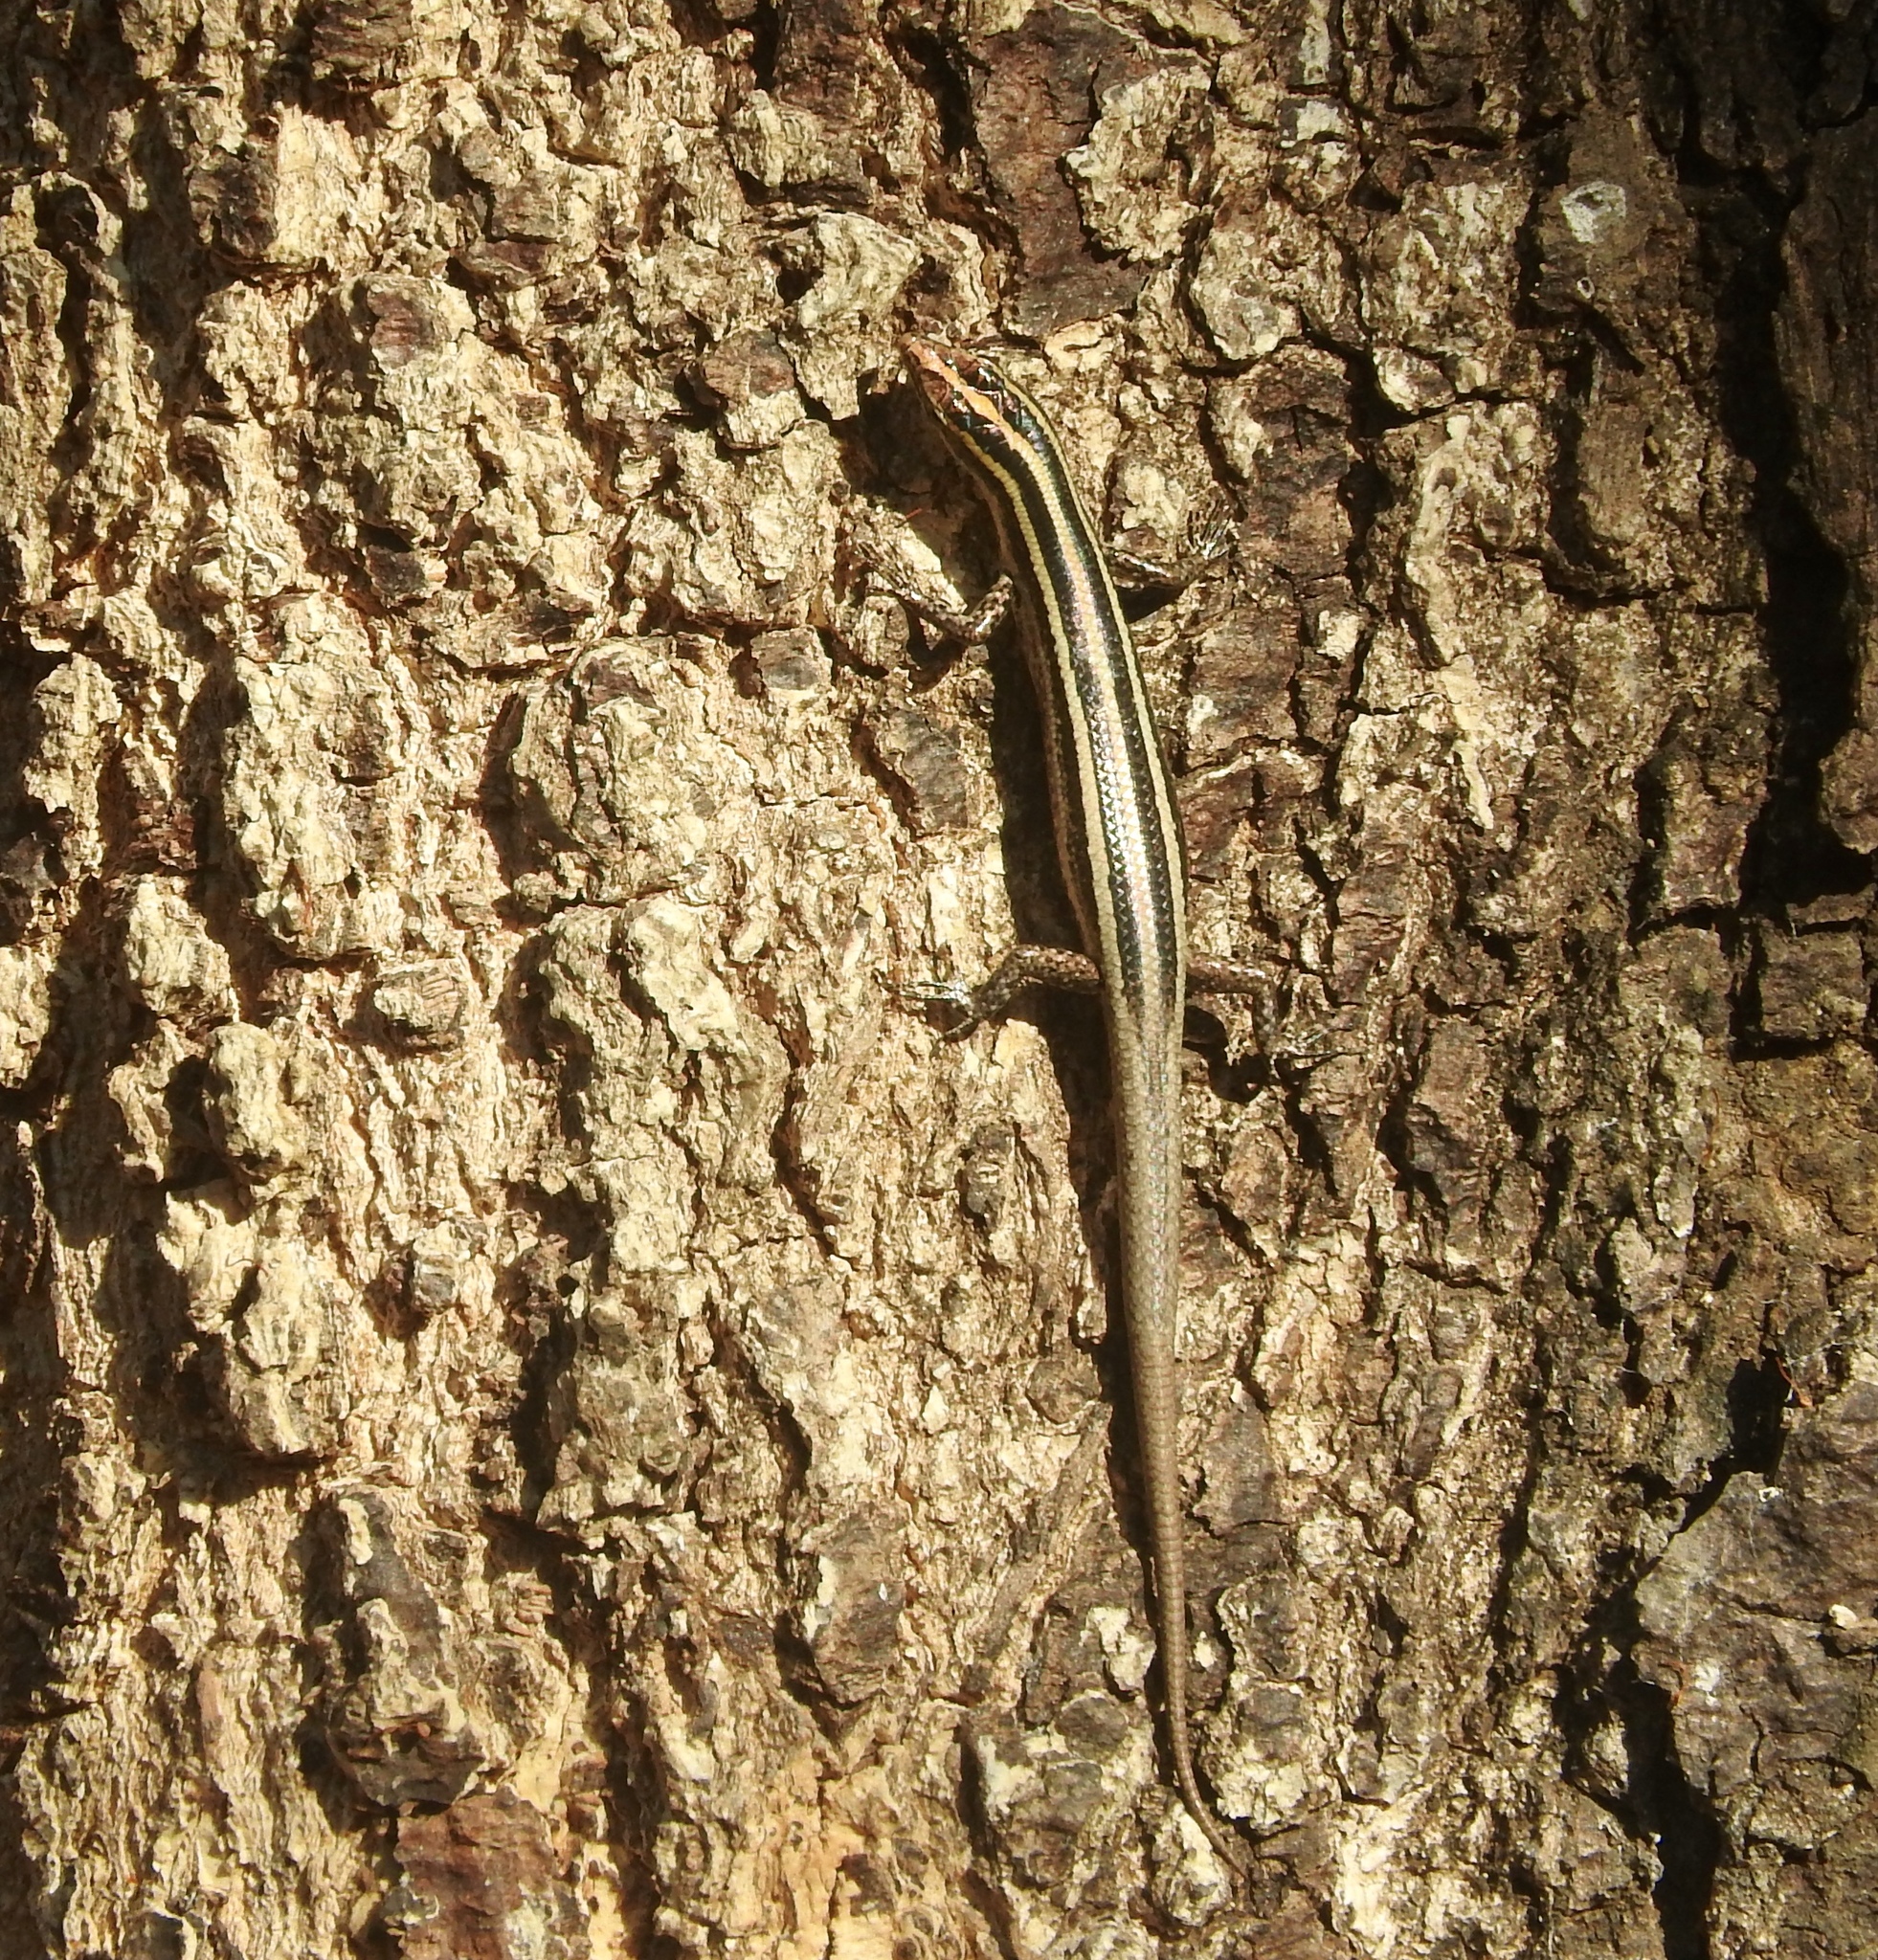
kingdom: Animalia
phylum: Chordata
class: Squamata
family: Scincidae
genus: Cryptoblepharus
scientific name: Cryptoblepharus renschi
